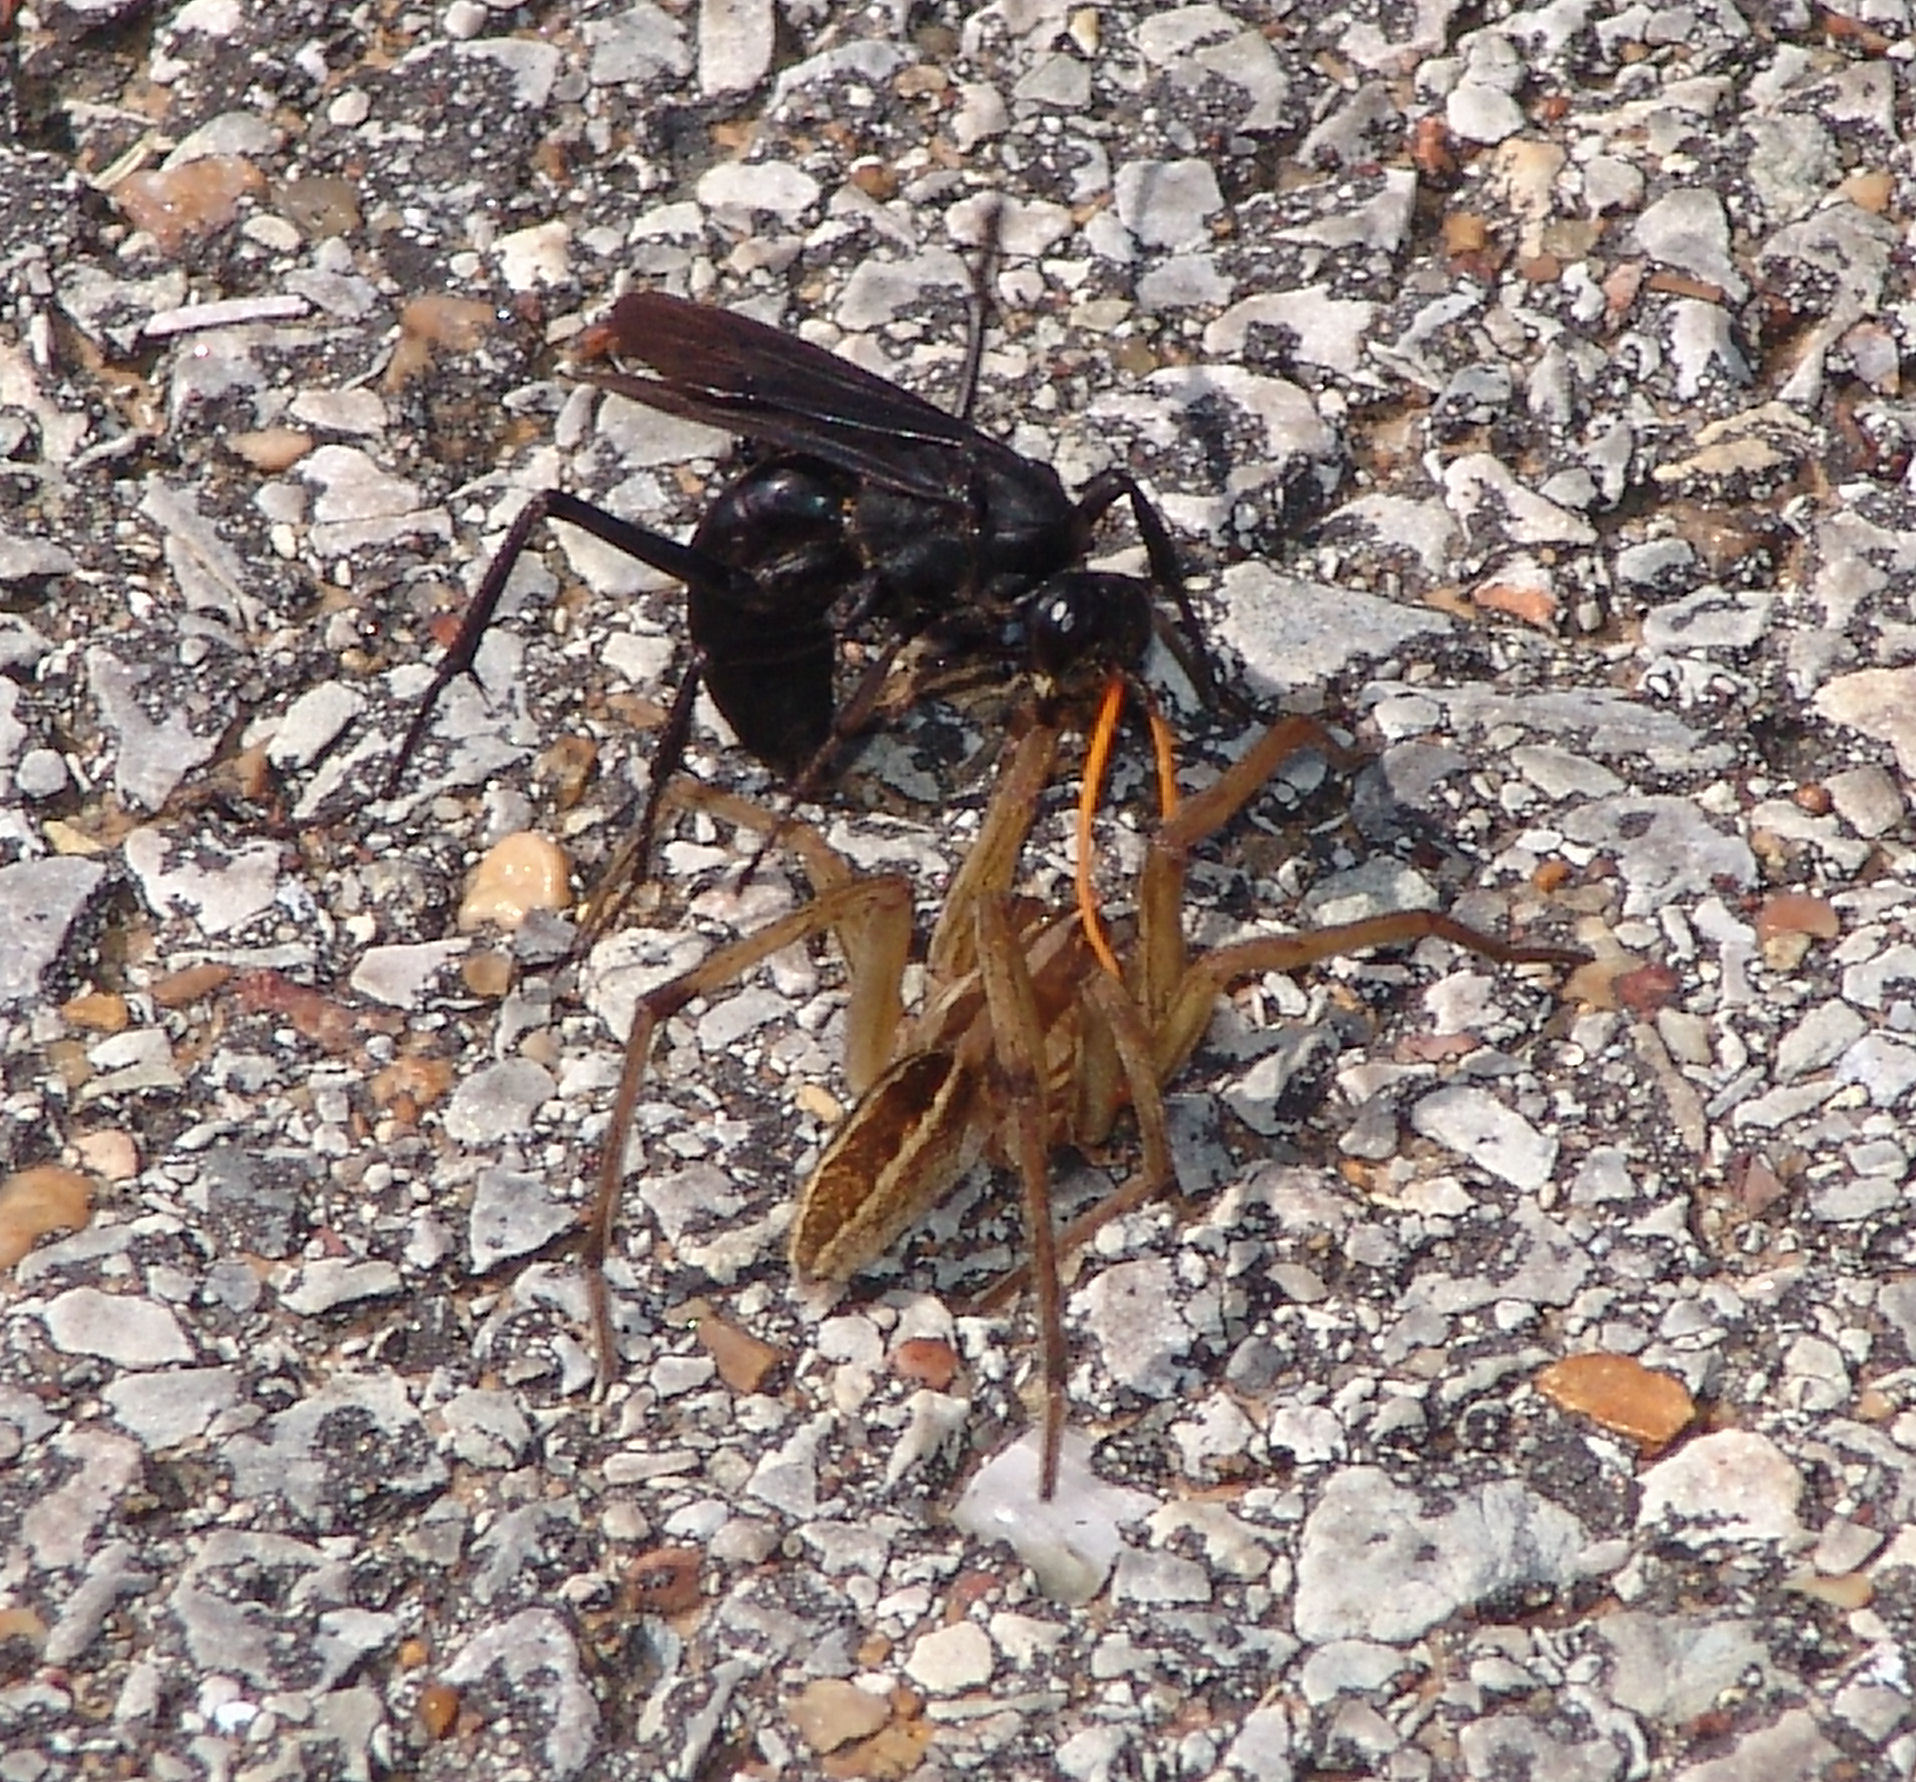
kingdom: Animalia
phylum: Arthropoda
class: Arachnida
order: Araneae
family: Lycosidae
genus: Rabidosa
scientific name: Rabidosa rabida
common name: Rabid wolf spider
